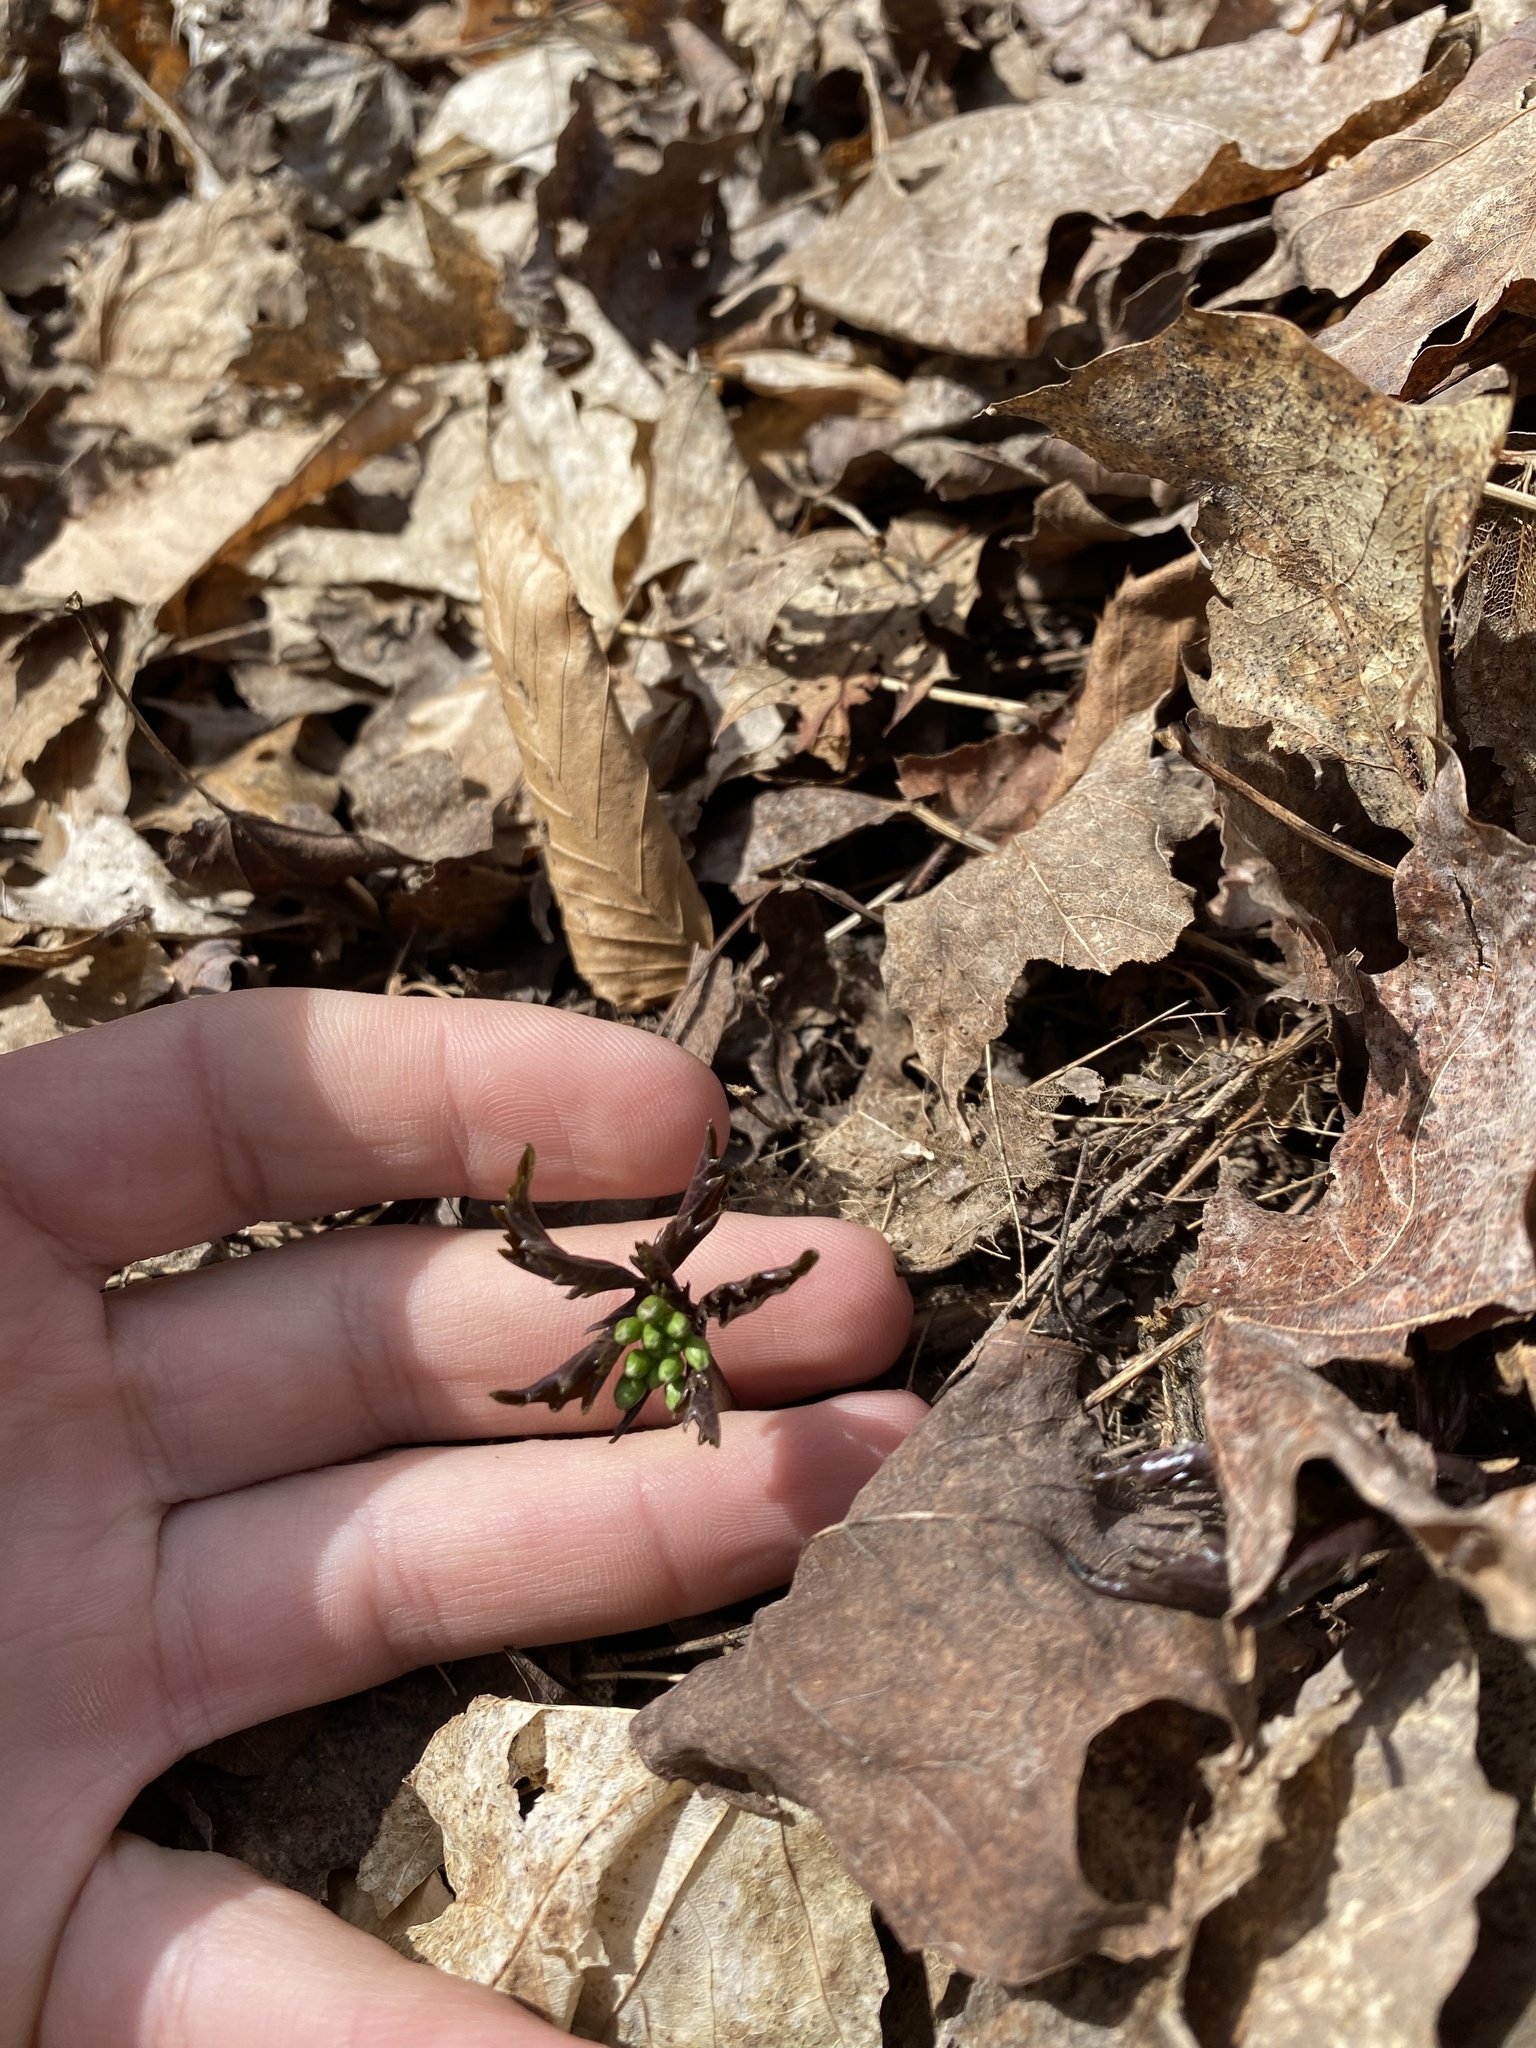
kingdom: Plantae
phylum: Tracheophyta
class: Magnoliopsida
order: Brassicales
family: Brassicaceae
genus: Cardamine
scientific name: Cardamine concatenata
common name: Cut-leaf toothcup
